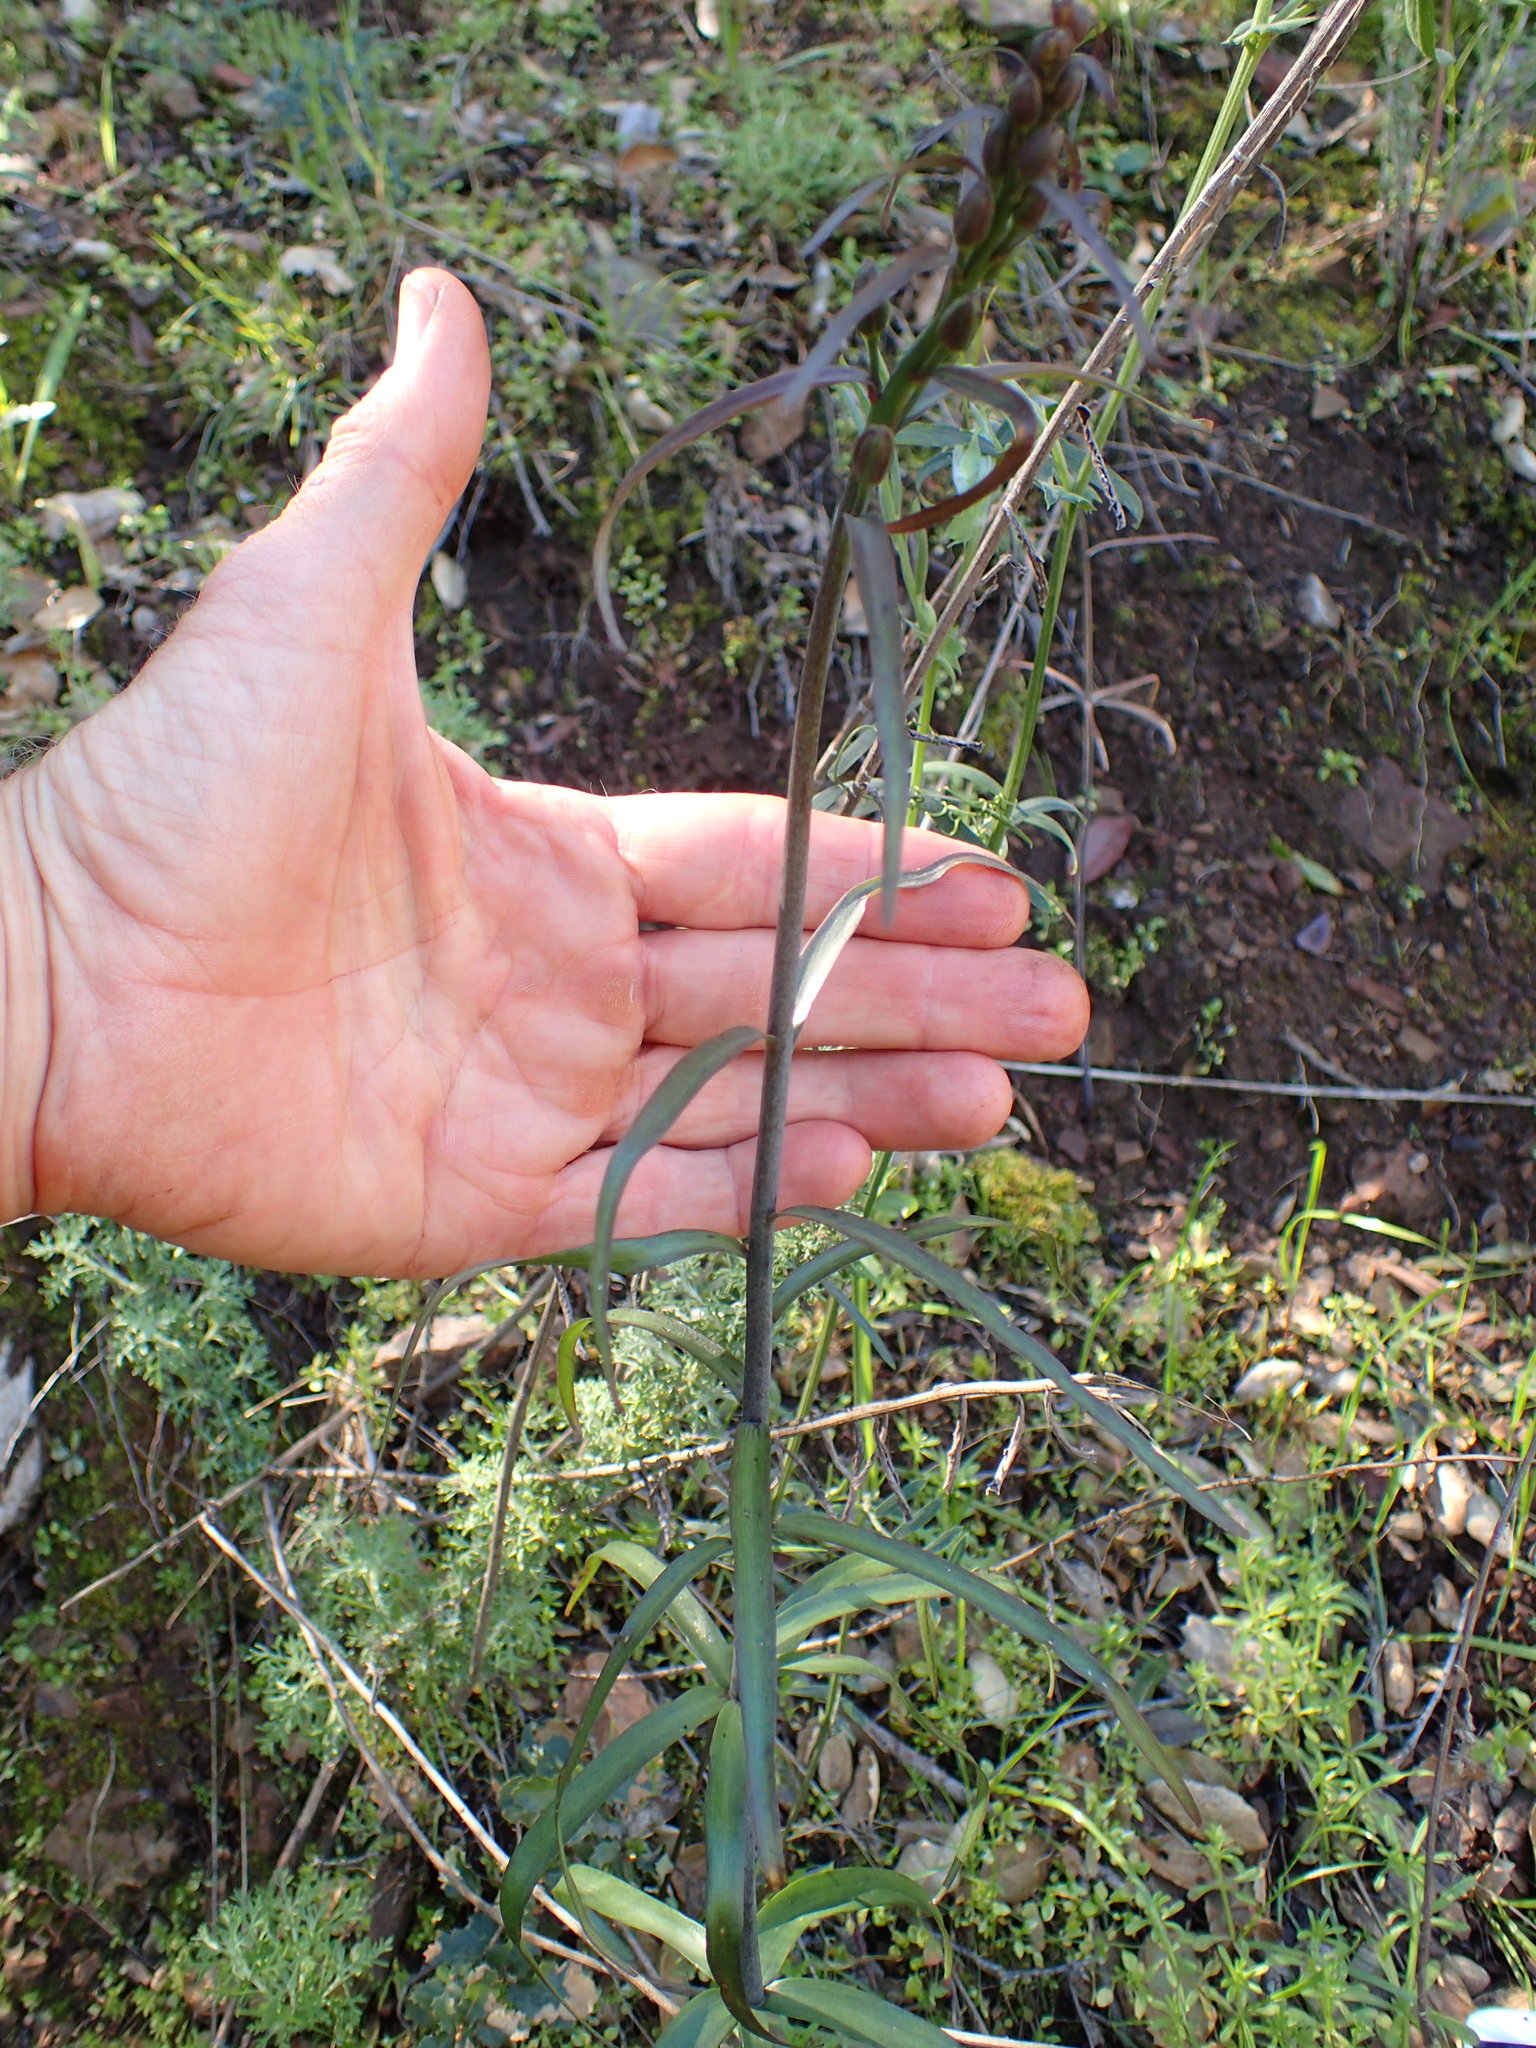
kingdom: Plantae
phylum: Tracheophyta
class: Liliopsida
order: Liliales
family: Liliaceae
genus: Fritillaria
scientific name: Fritillaria ojaiensis
